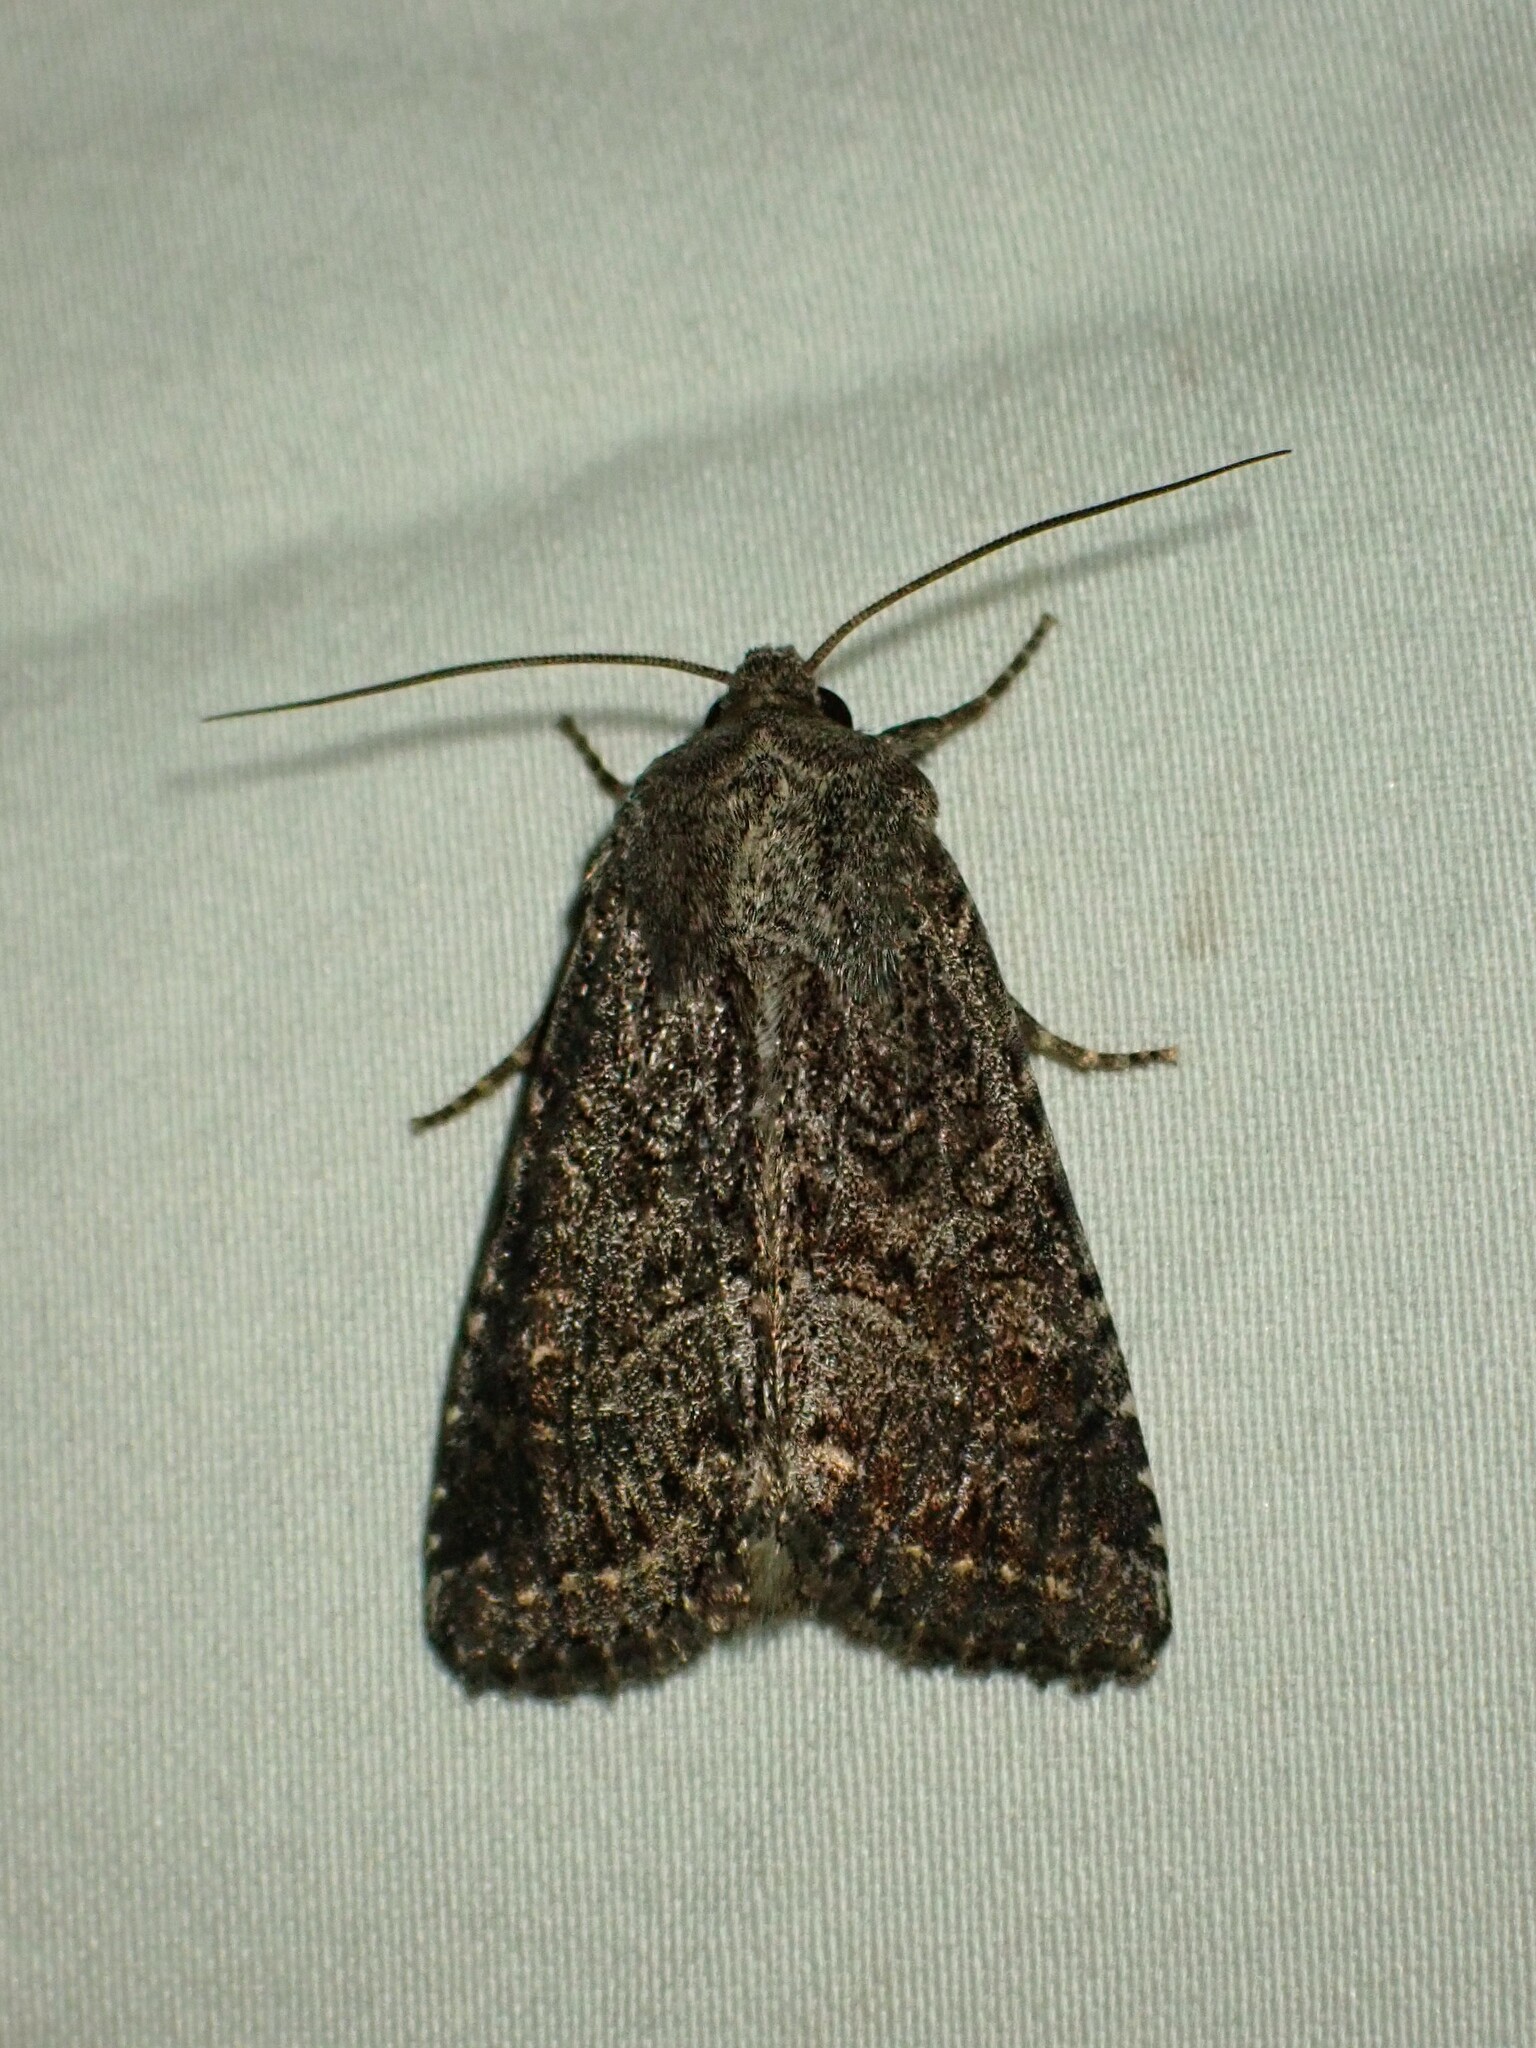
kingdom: Animalia
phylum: Arthropoda
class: Insecta
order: Lepidoptera
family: Noctuidae
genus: Apamea
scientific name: Apamea devastator
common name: Glassy cutworm
